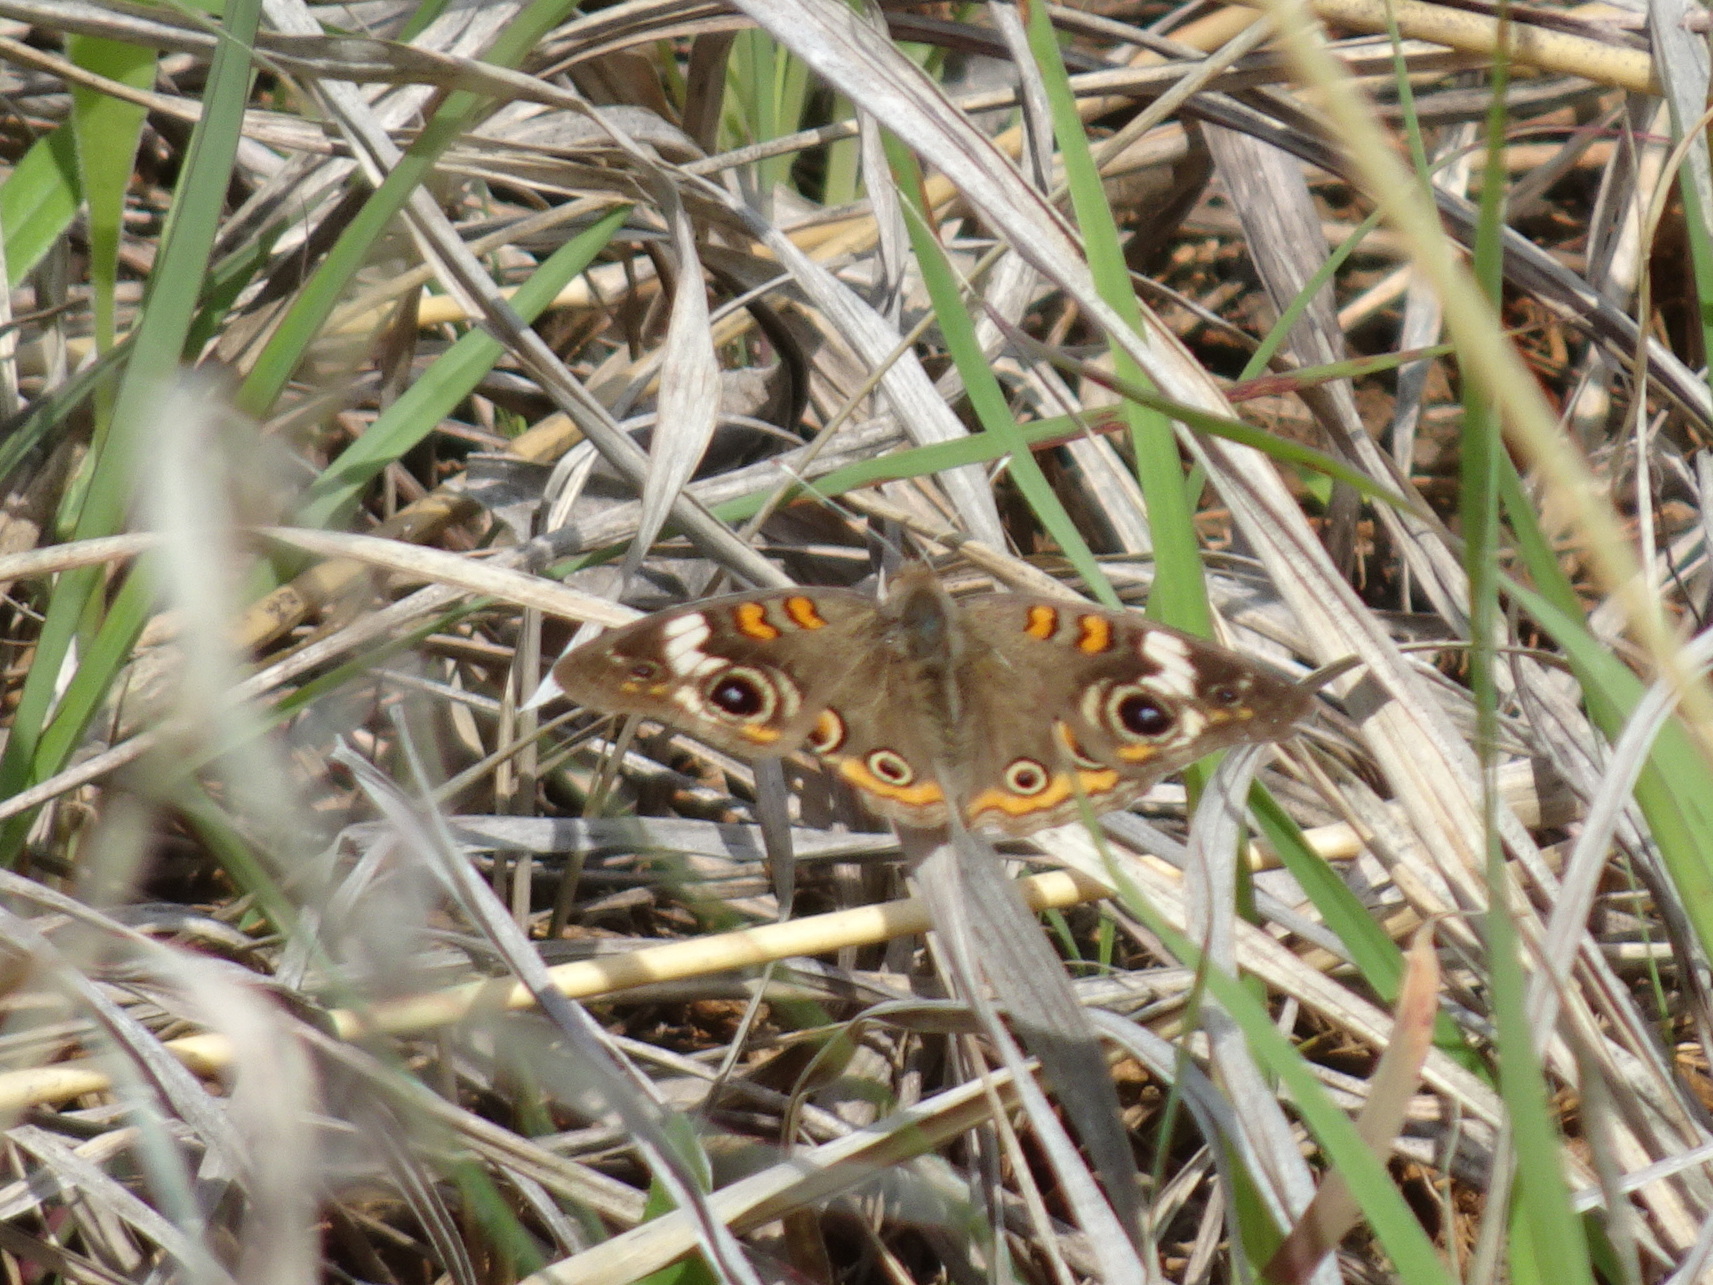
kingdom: Animalia
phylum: Arthropoda
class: Insecta
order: Lepidoptera
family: Nymphalidae
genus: Junonia
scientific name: Junonia coenia
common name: Common buckeye
